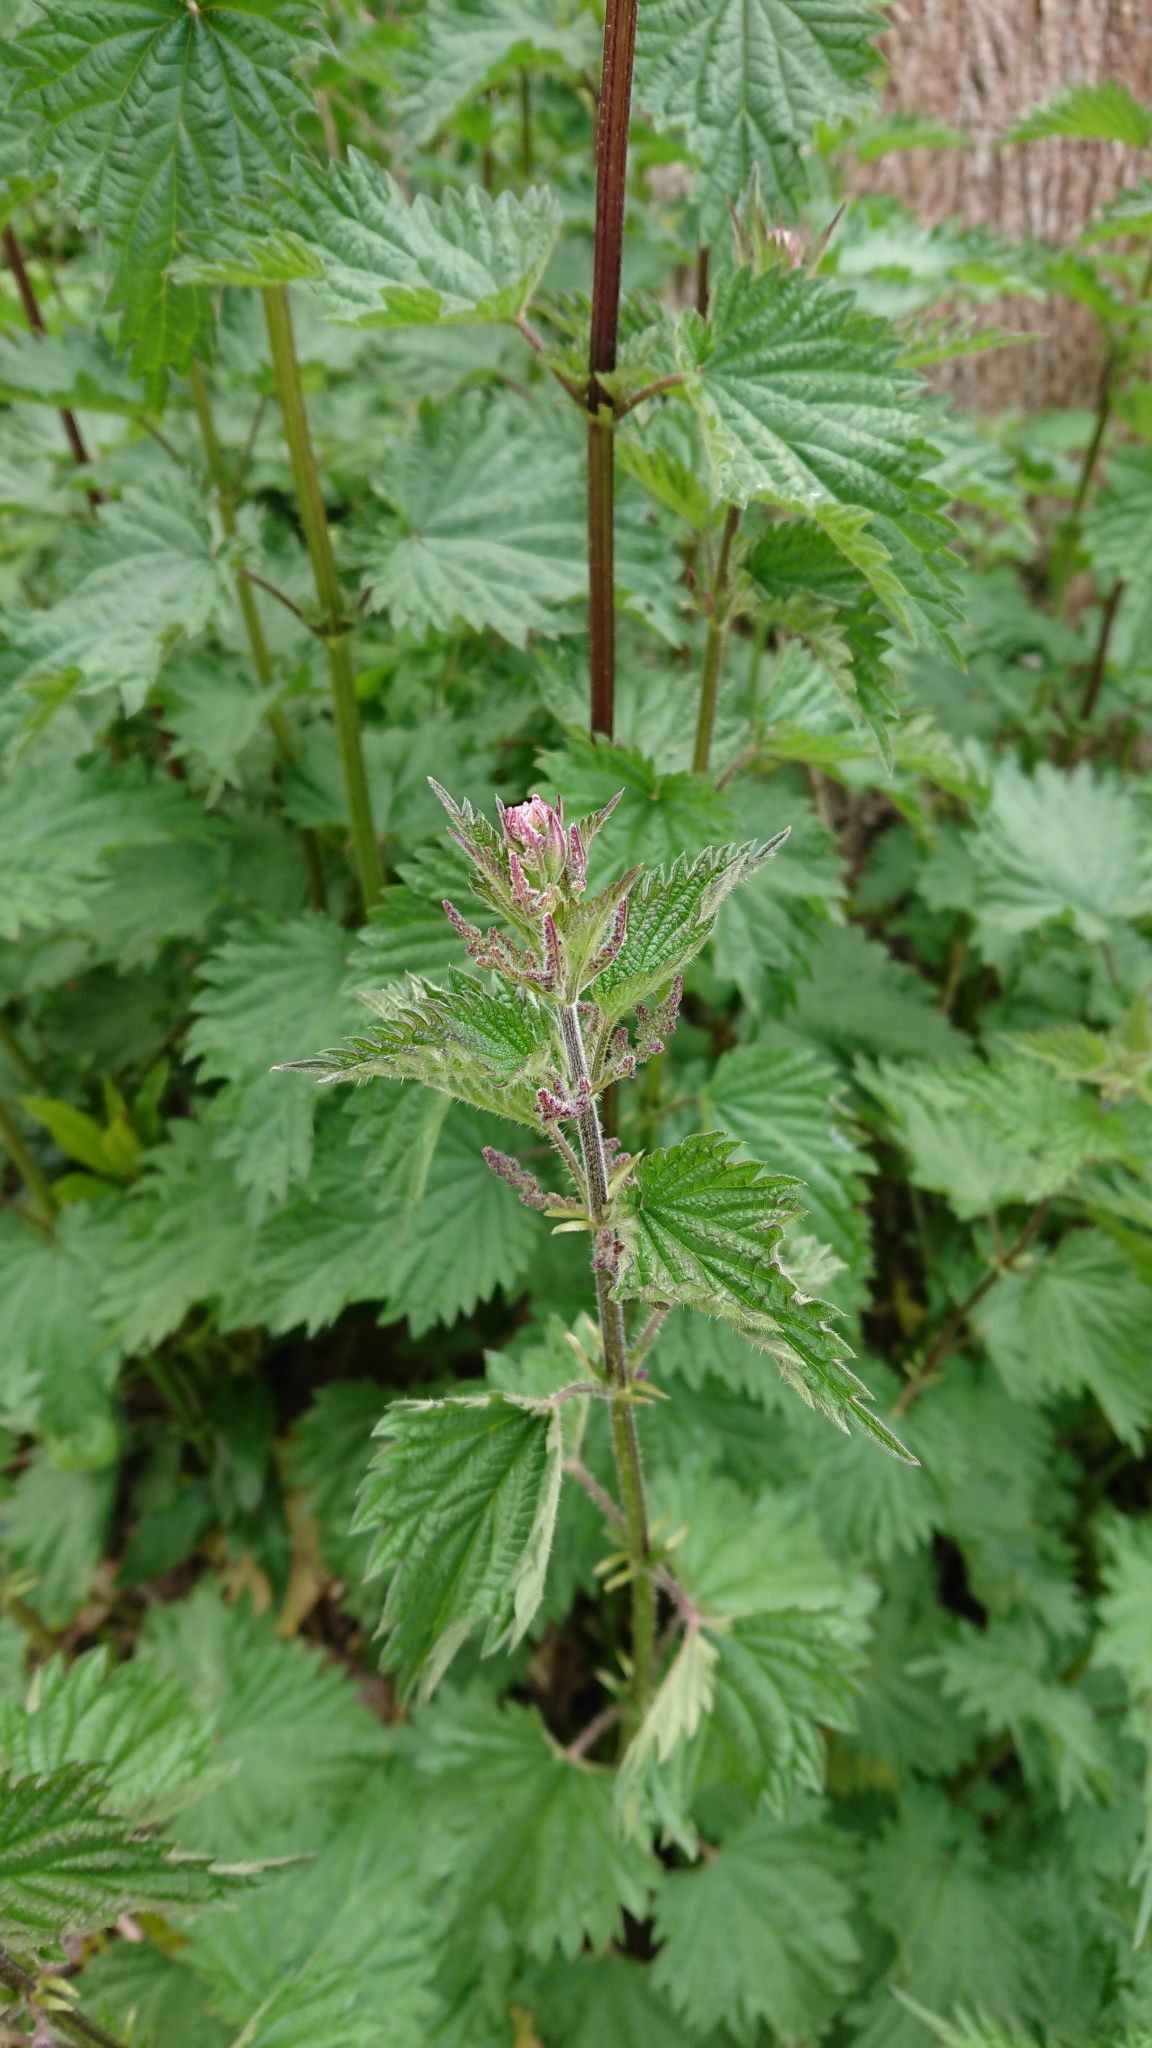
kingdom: Plantae
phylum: Tracheophyta
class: Magnoliopsida
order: Rosales
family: Urticaceae
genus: Urtica
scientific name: Urtica dioica
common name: Common nettle
